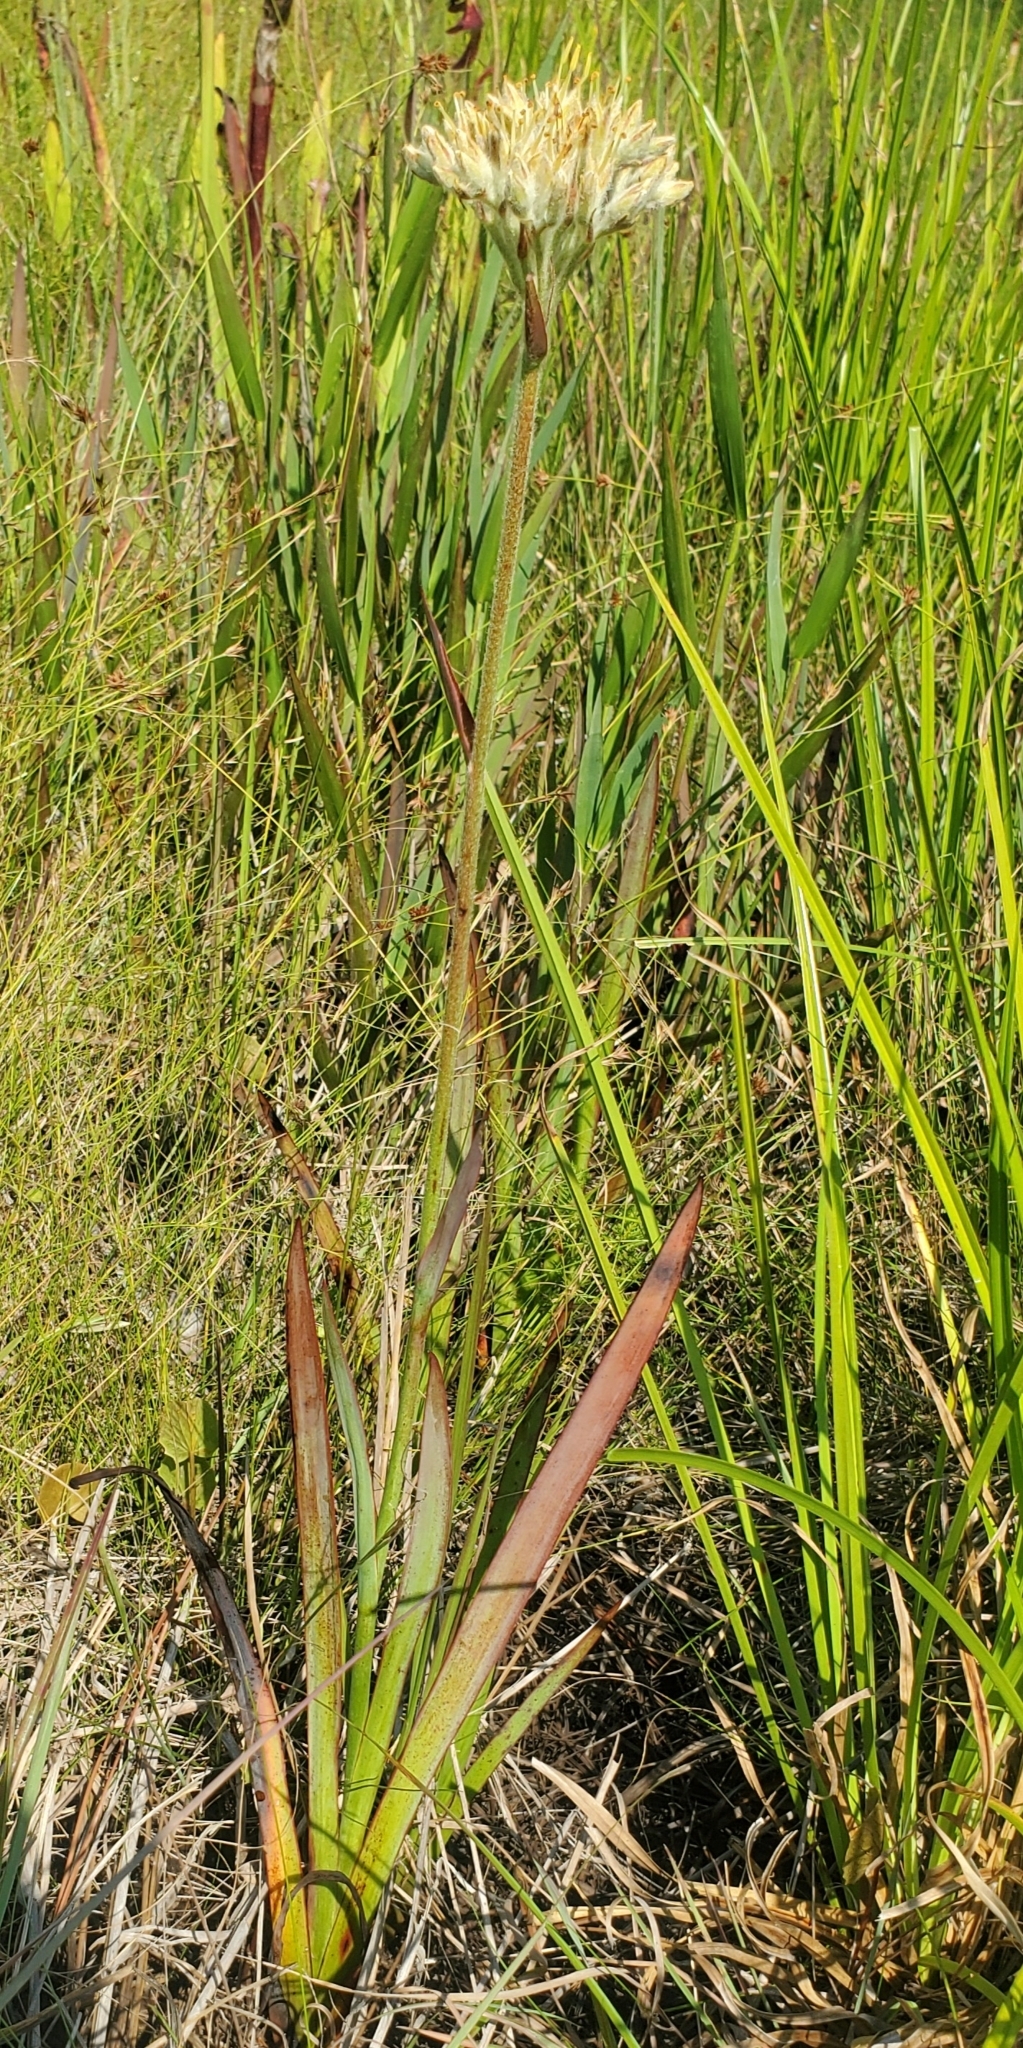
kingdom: Plantae
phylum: Tracheophyta
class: Liliopsida
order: Commelinales
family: Haemodoraceae
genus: Lachnanthes
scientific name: Lachnanthes caroliana
